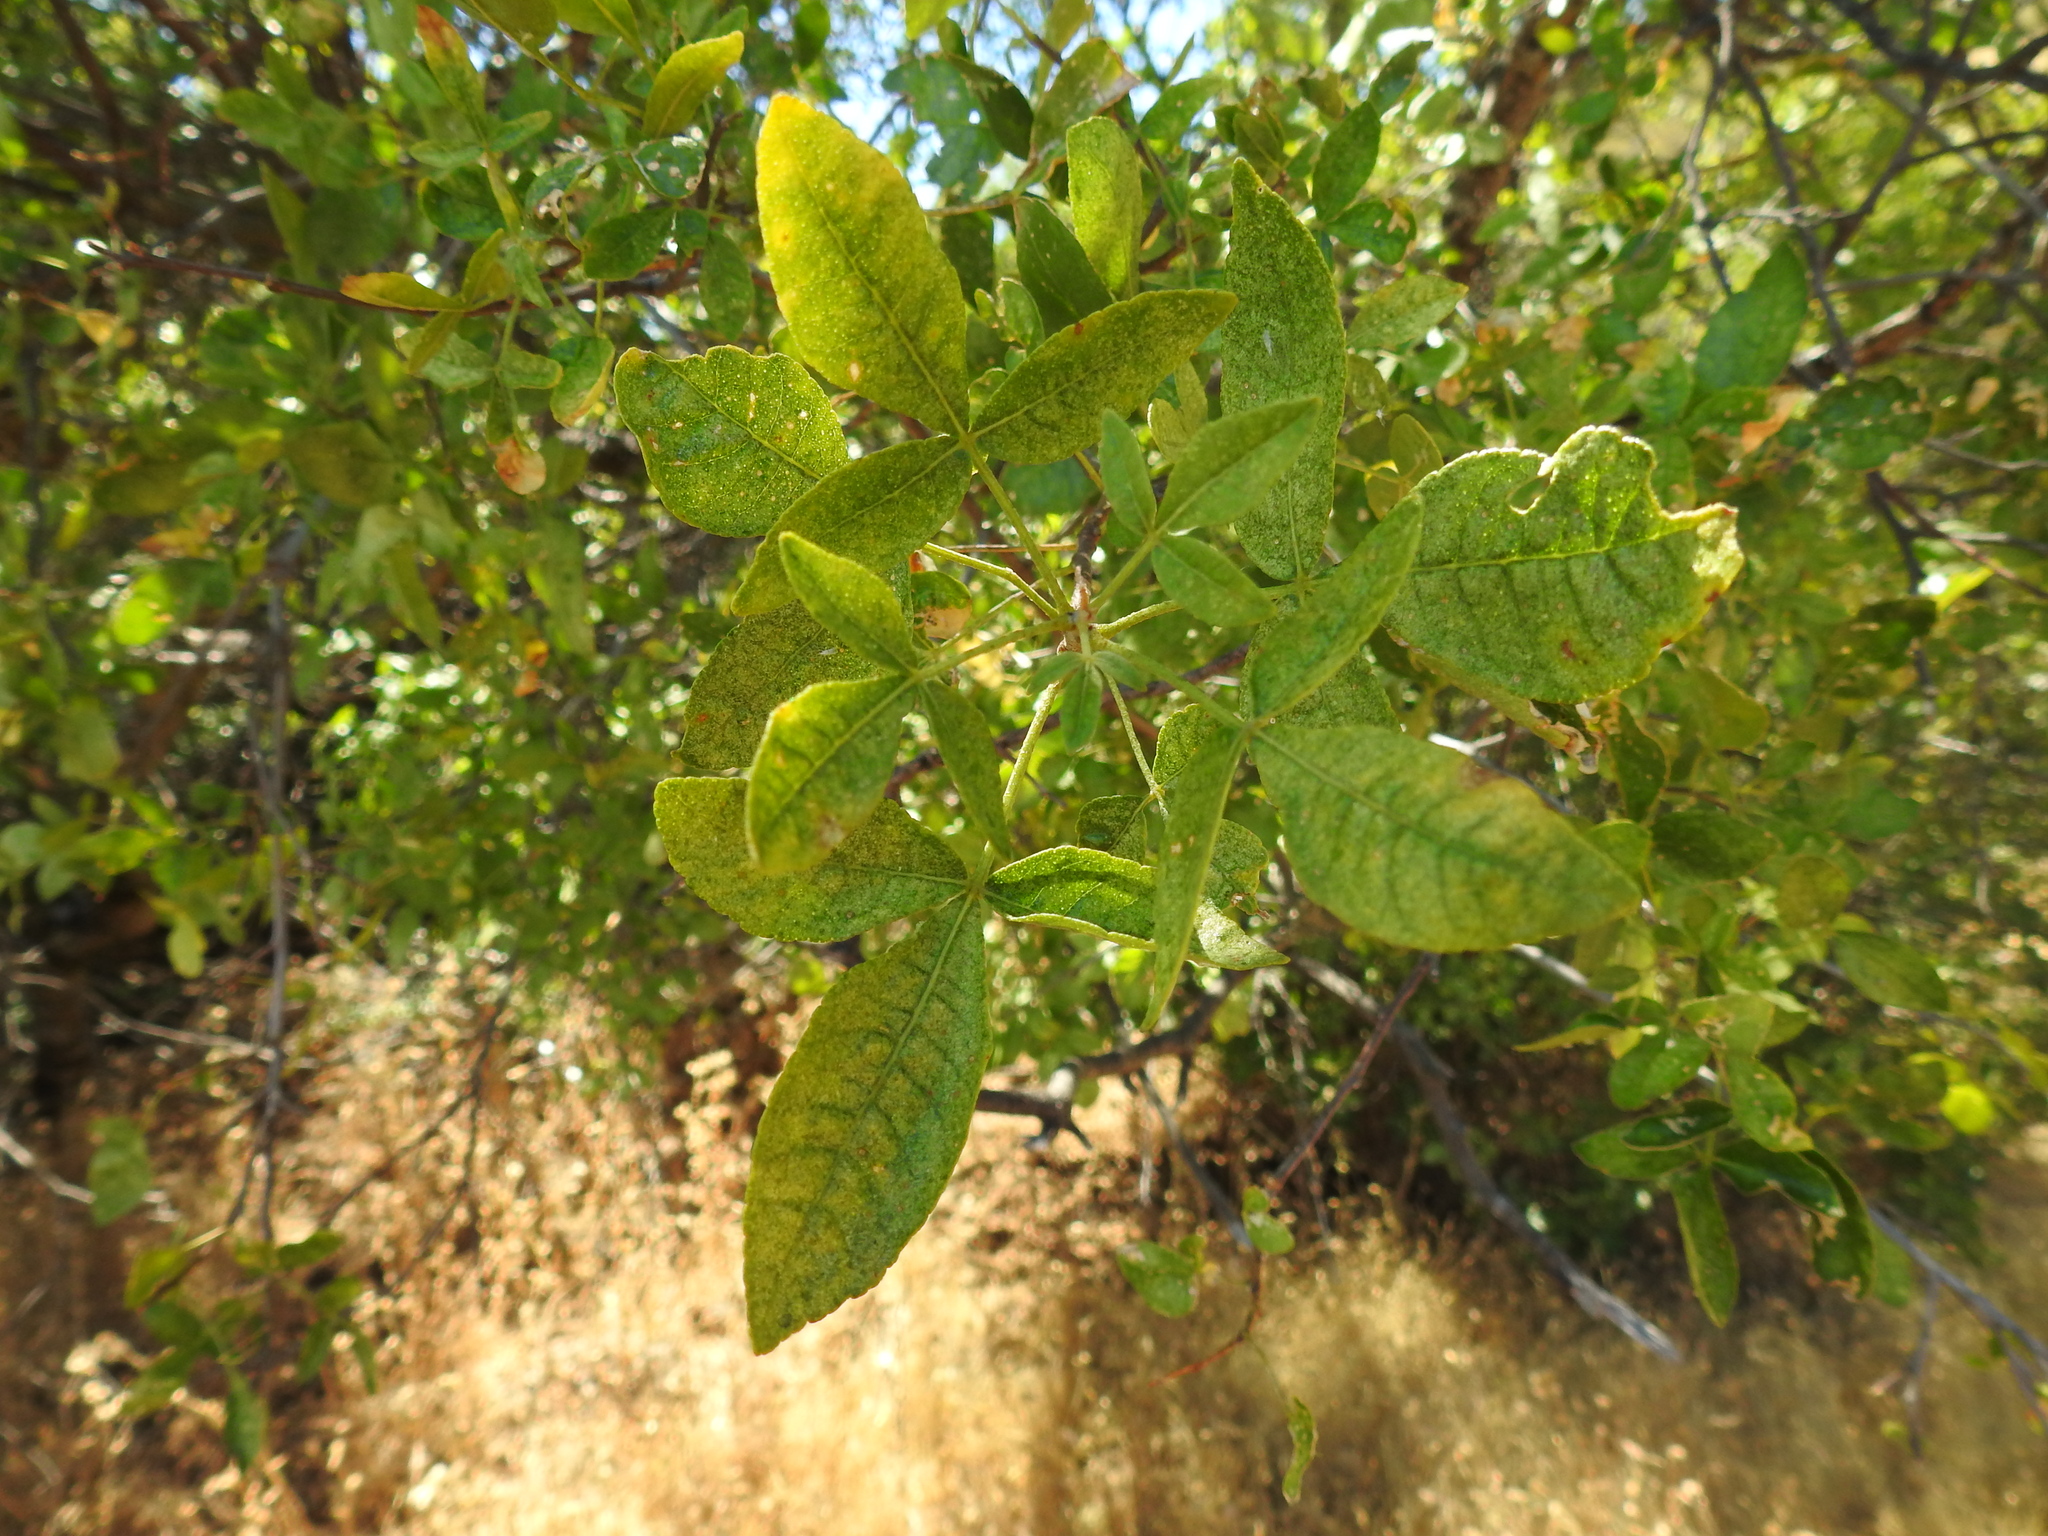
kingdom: Plantae
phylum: Tracheophyta
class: Magnoliopsida
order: Sapindales
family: Rutaceae
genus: Ptelea
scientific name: Ptelea crenulata
